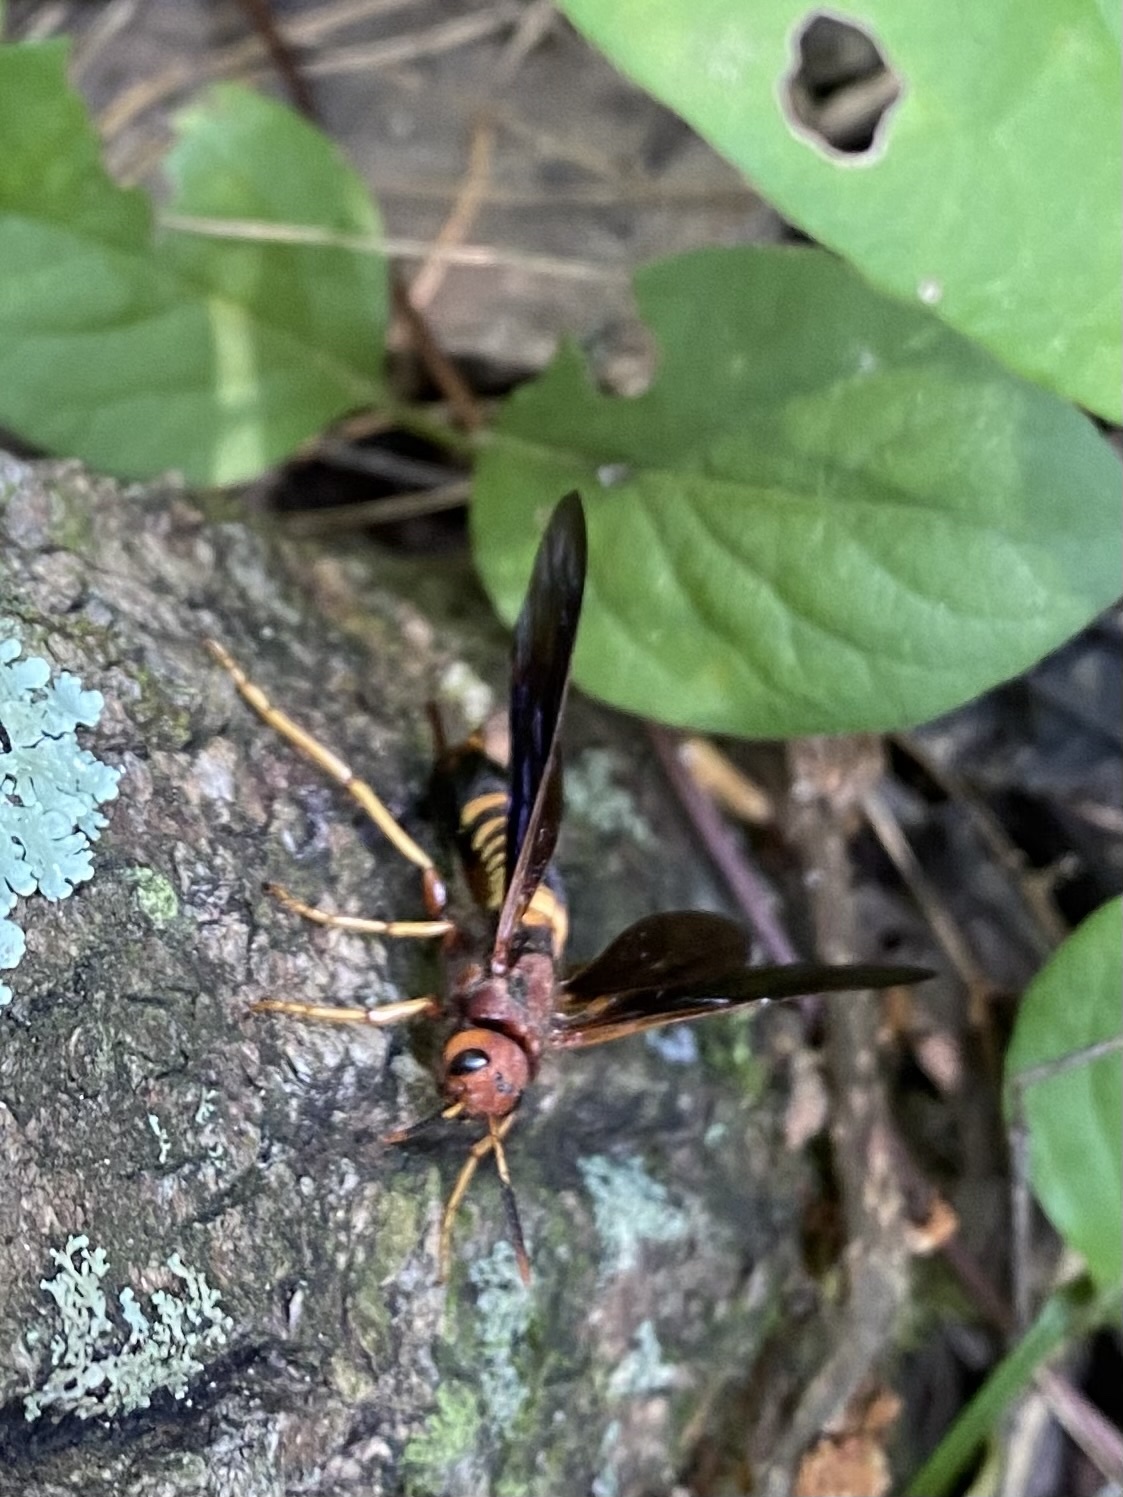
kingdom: Animalia
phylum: Arthropoda
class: Insecta
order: Hymenoptera
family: Siricidae
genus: Tremex
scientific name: Tremex columba
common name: Wasp
